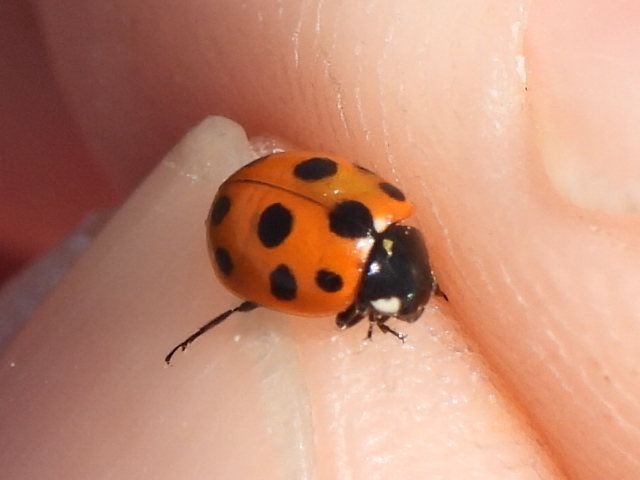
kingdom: Animalia
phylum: Arthropoda
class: Insecta
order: Coleoptera
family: Coccinellidae
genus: Coccinella
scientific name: Coccinella undecimpunctata
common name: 11-spot ladybird
